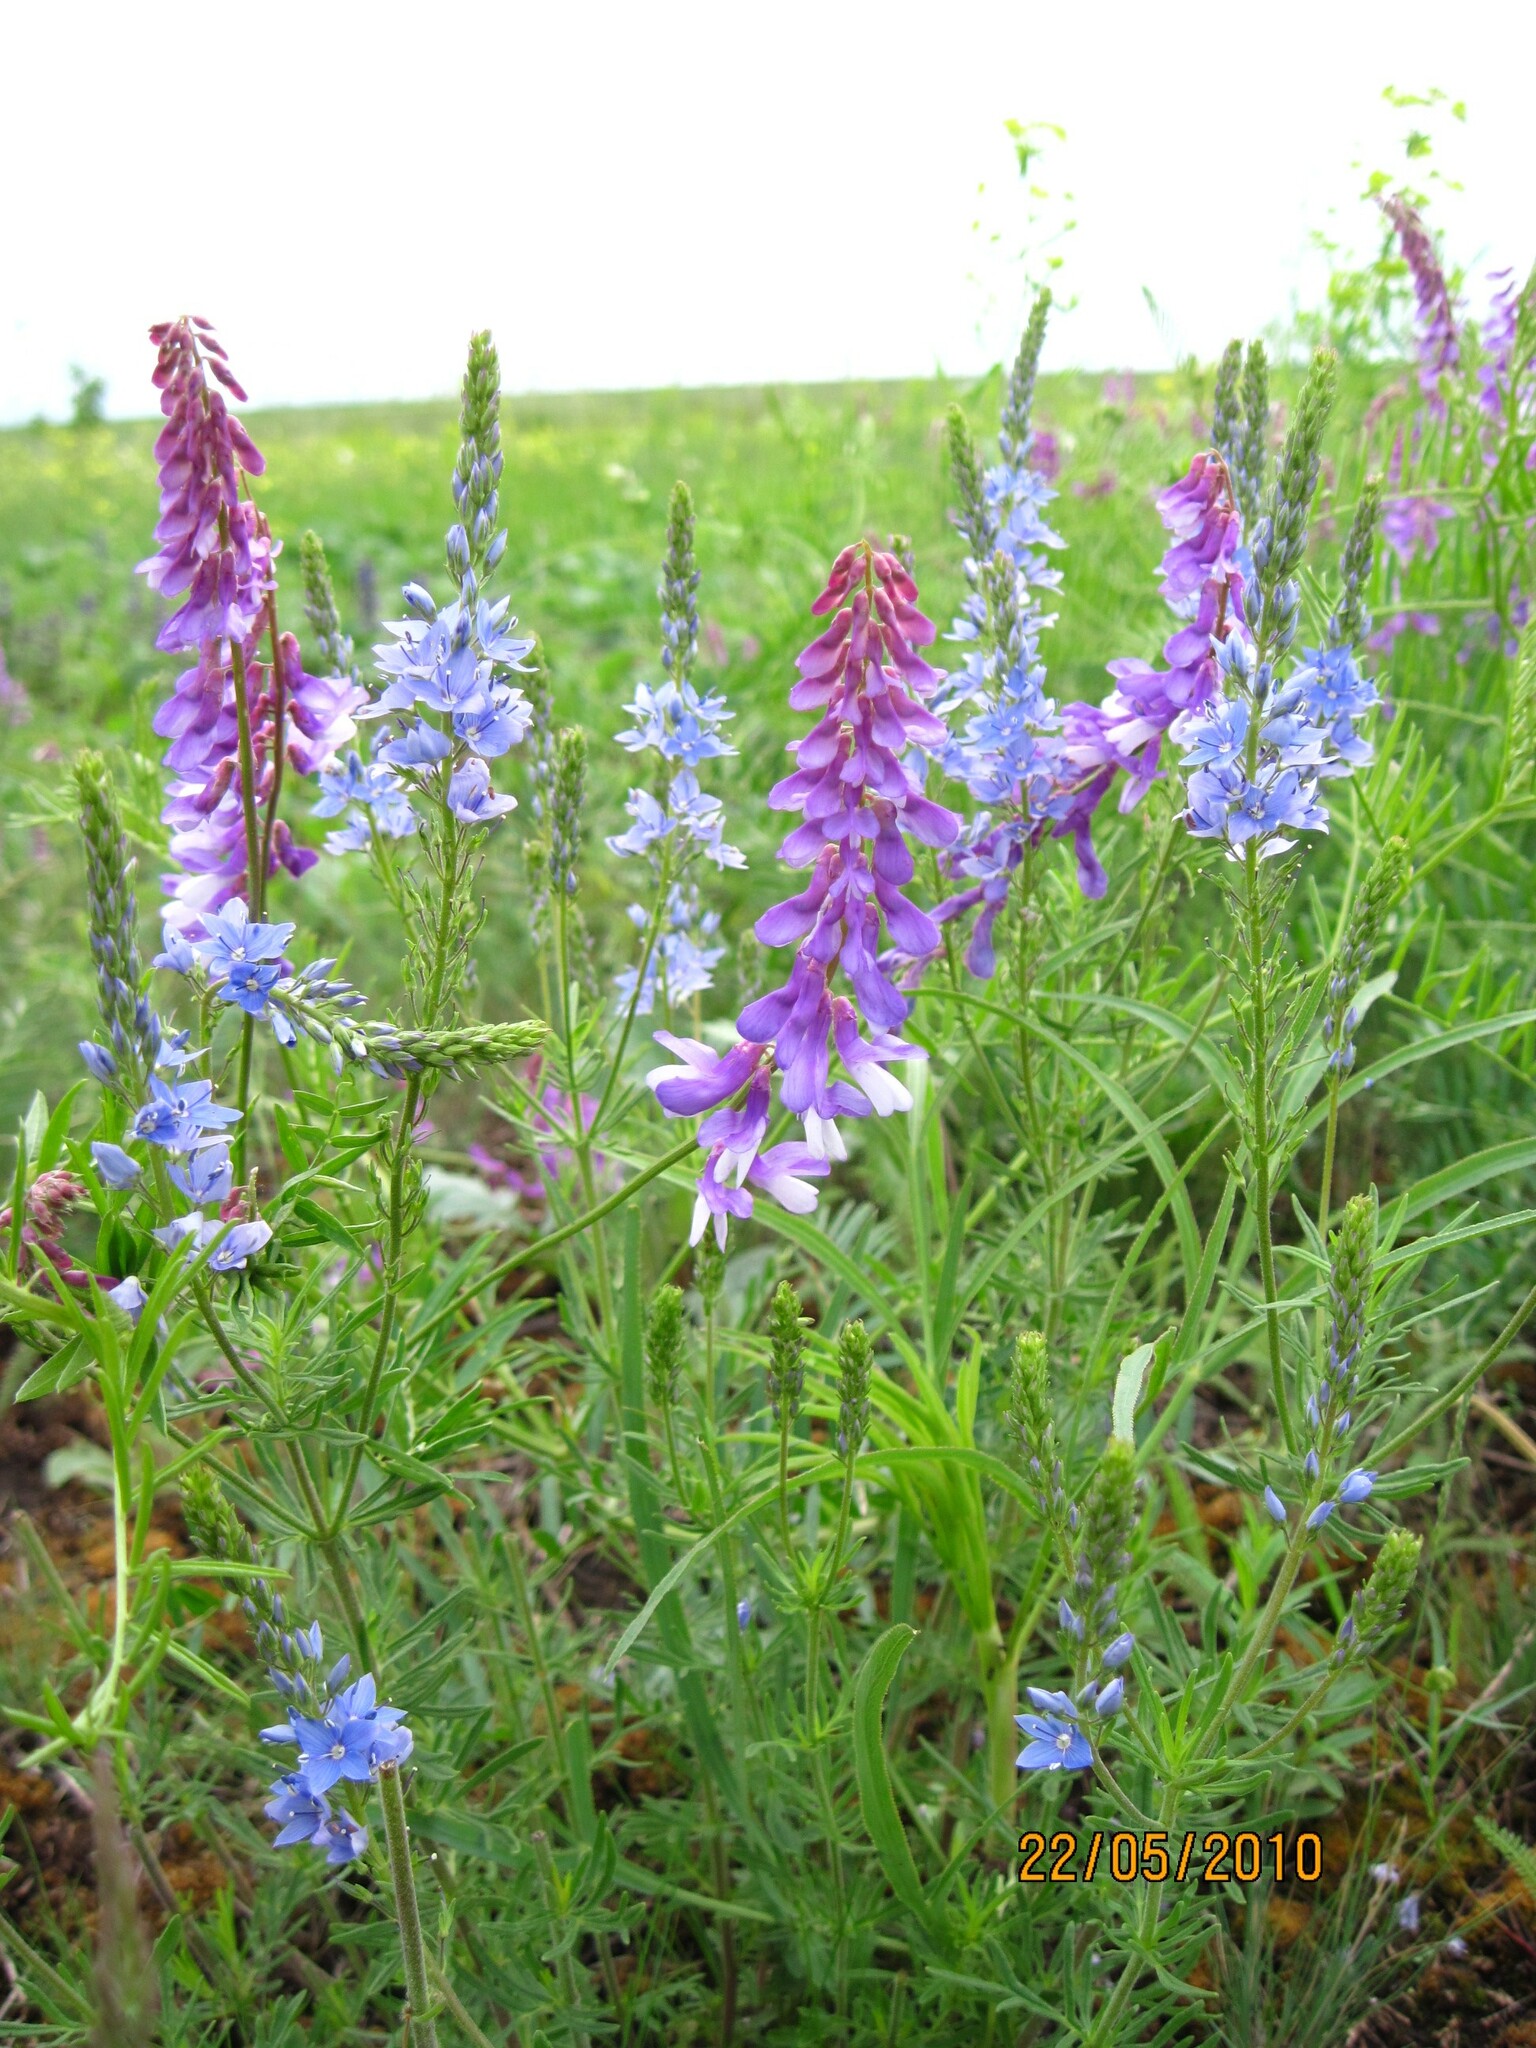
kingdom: Plantae
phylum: Tracheophyta
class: Magnoliopsida
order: Lamiales
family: Plantaginaceae
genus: Veronica
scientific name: Veronica austriaca
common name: Large speedwell
